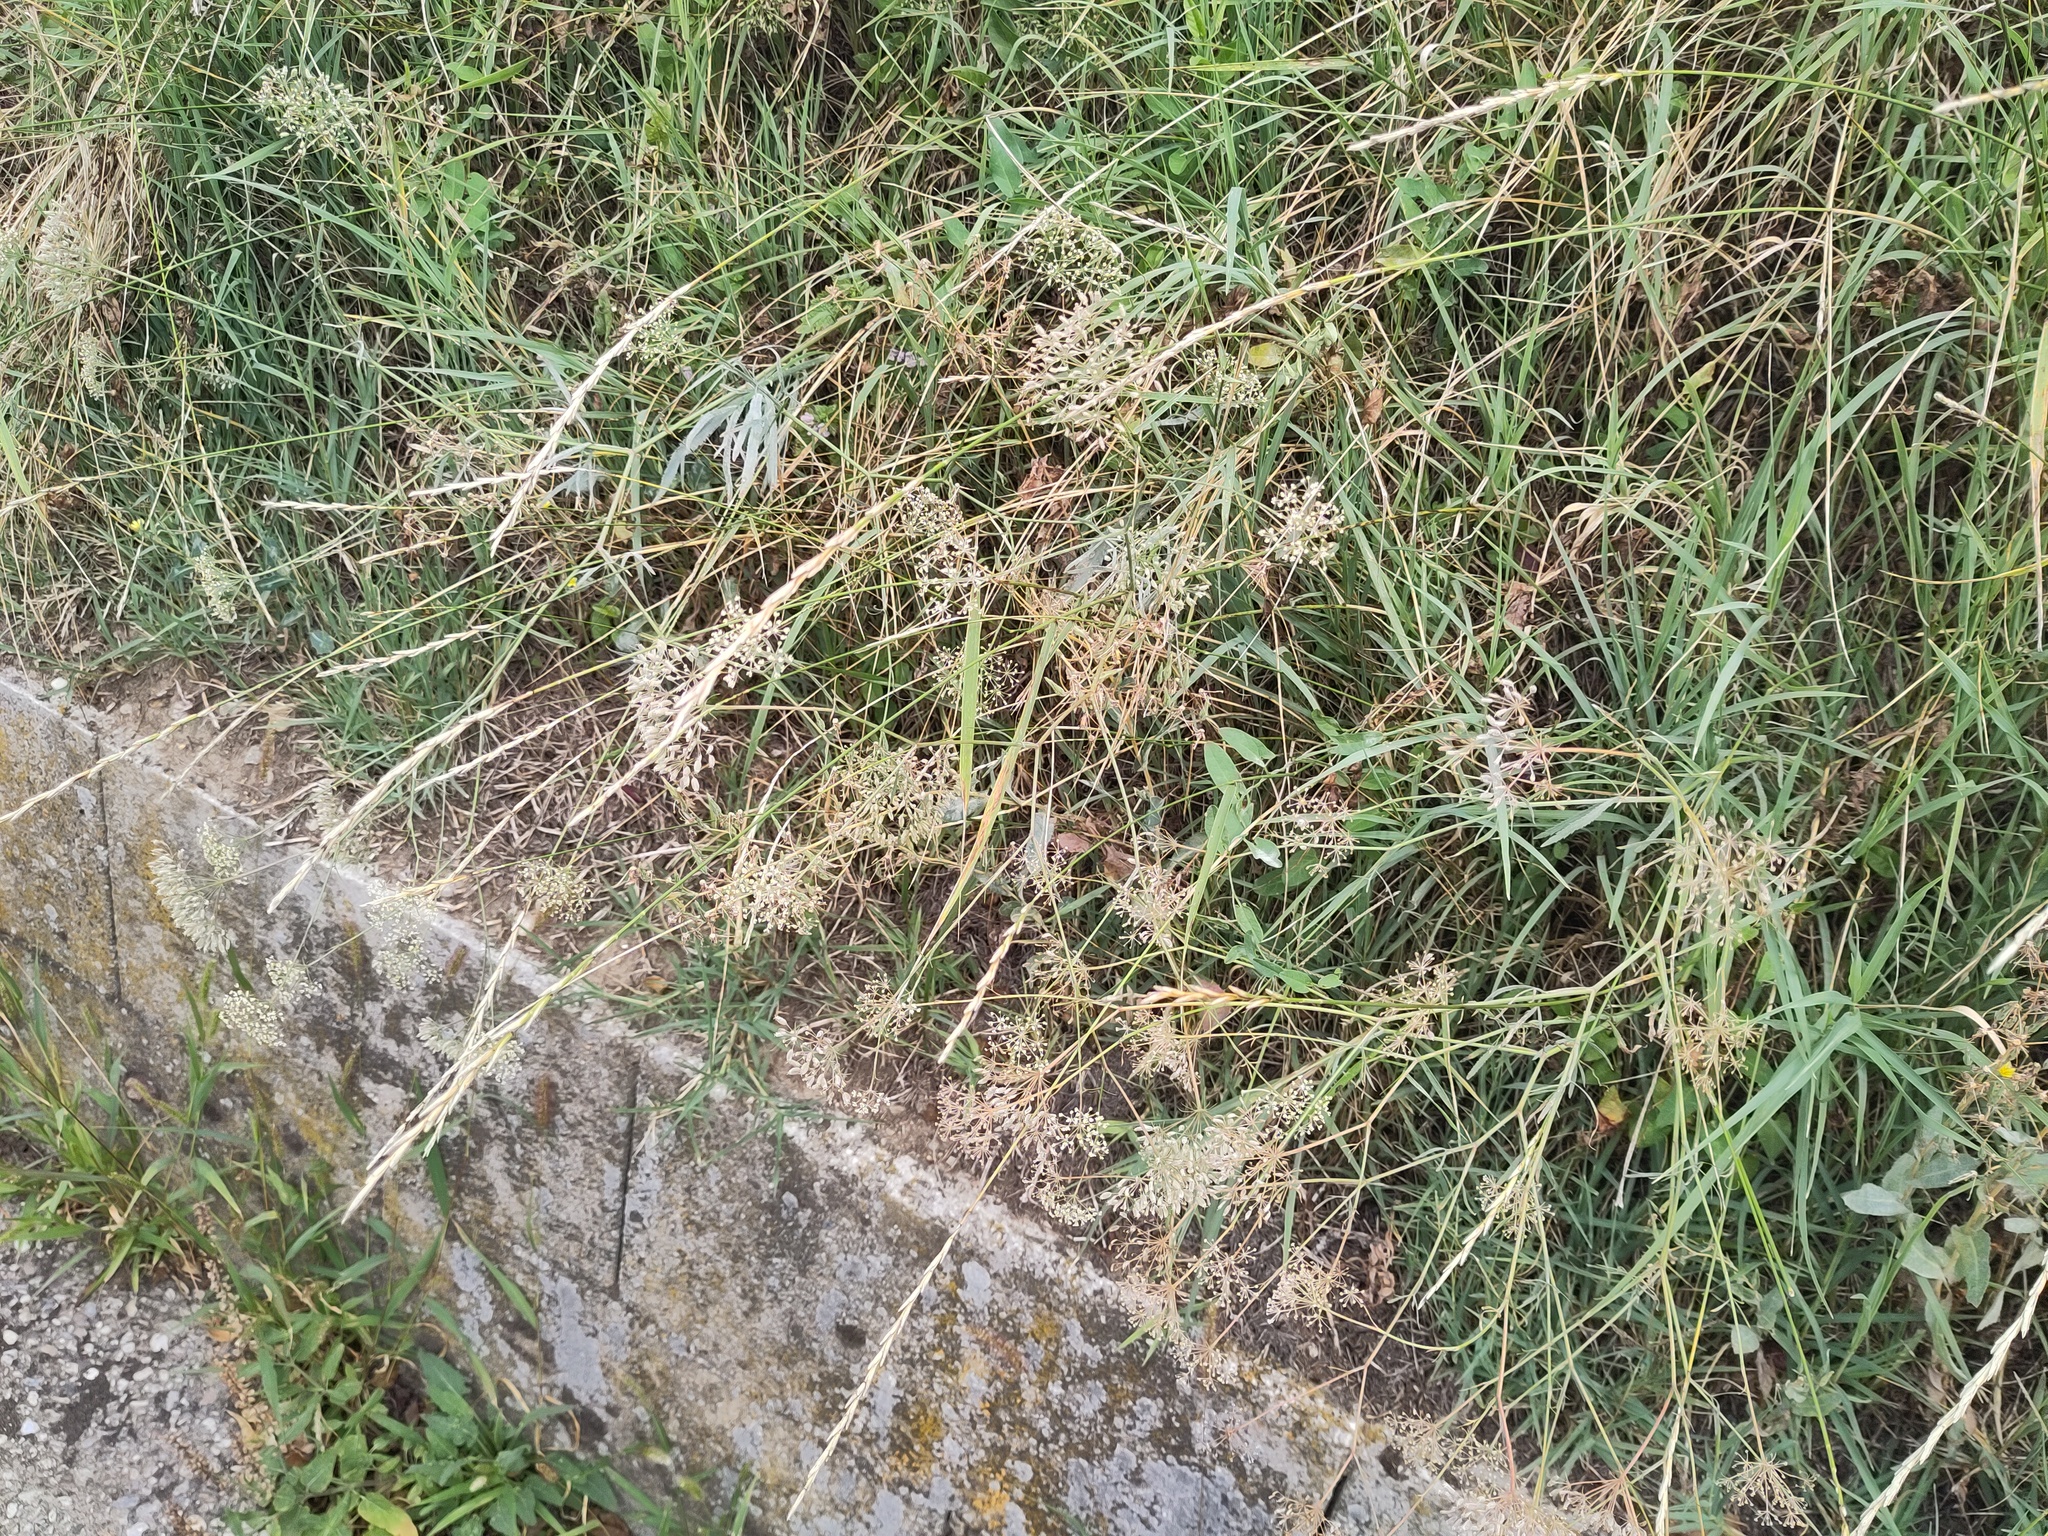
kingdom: Plantae
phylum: Tracheophyta
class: Magnoliopsida
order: Apiales
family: Apiaceae
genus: Falcaria
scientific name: Falcaria vulgaris
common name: Longleaf
